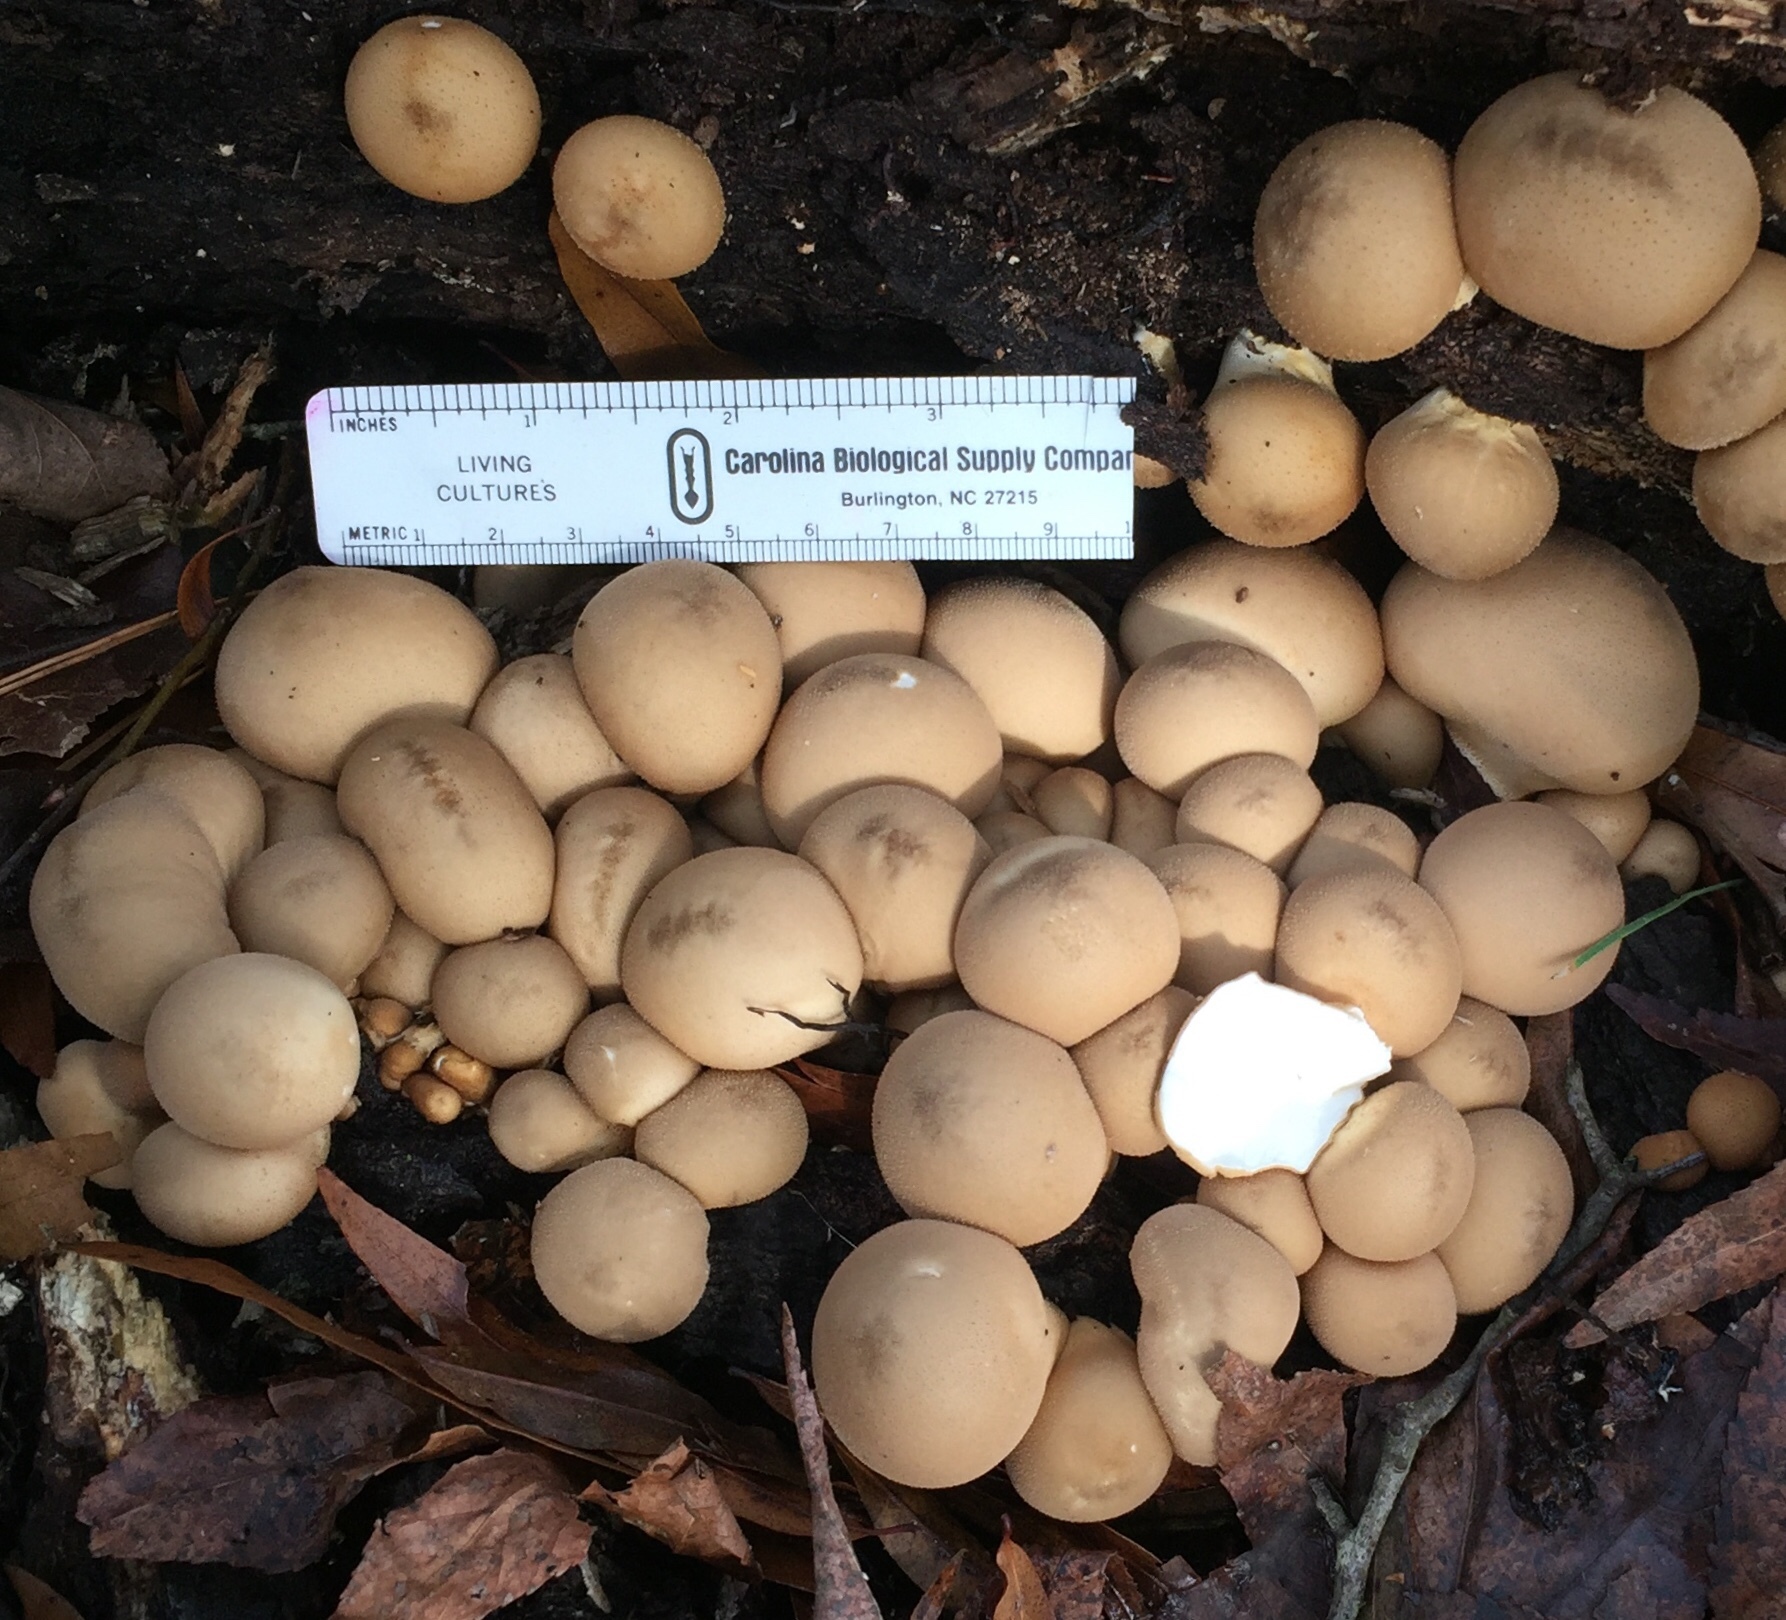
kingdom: Fungi
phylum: Basidiomycota
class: Agaricomycetes
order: Agaricales
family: Lycoperdaceae
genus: Apioperdon
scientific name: Apioperdon pyriforme
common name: Pear-shaped puffball
